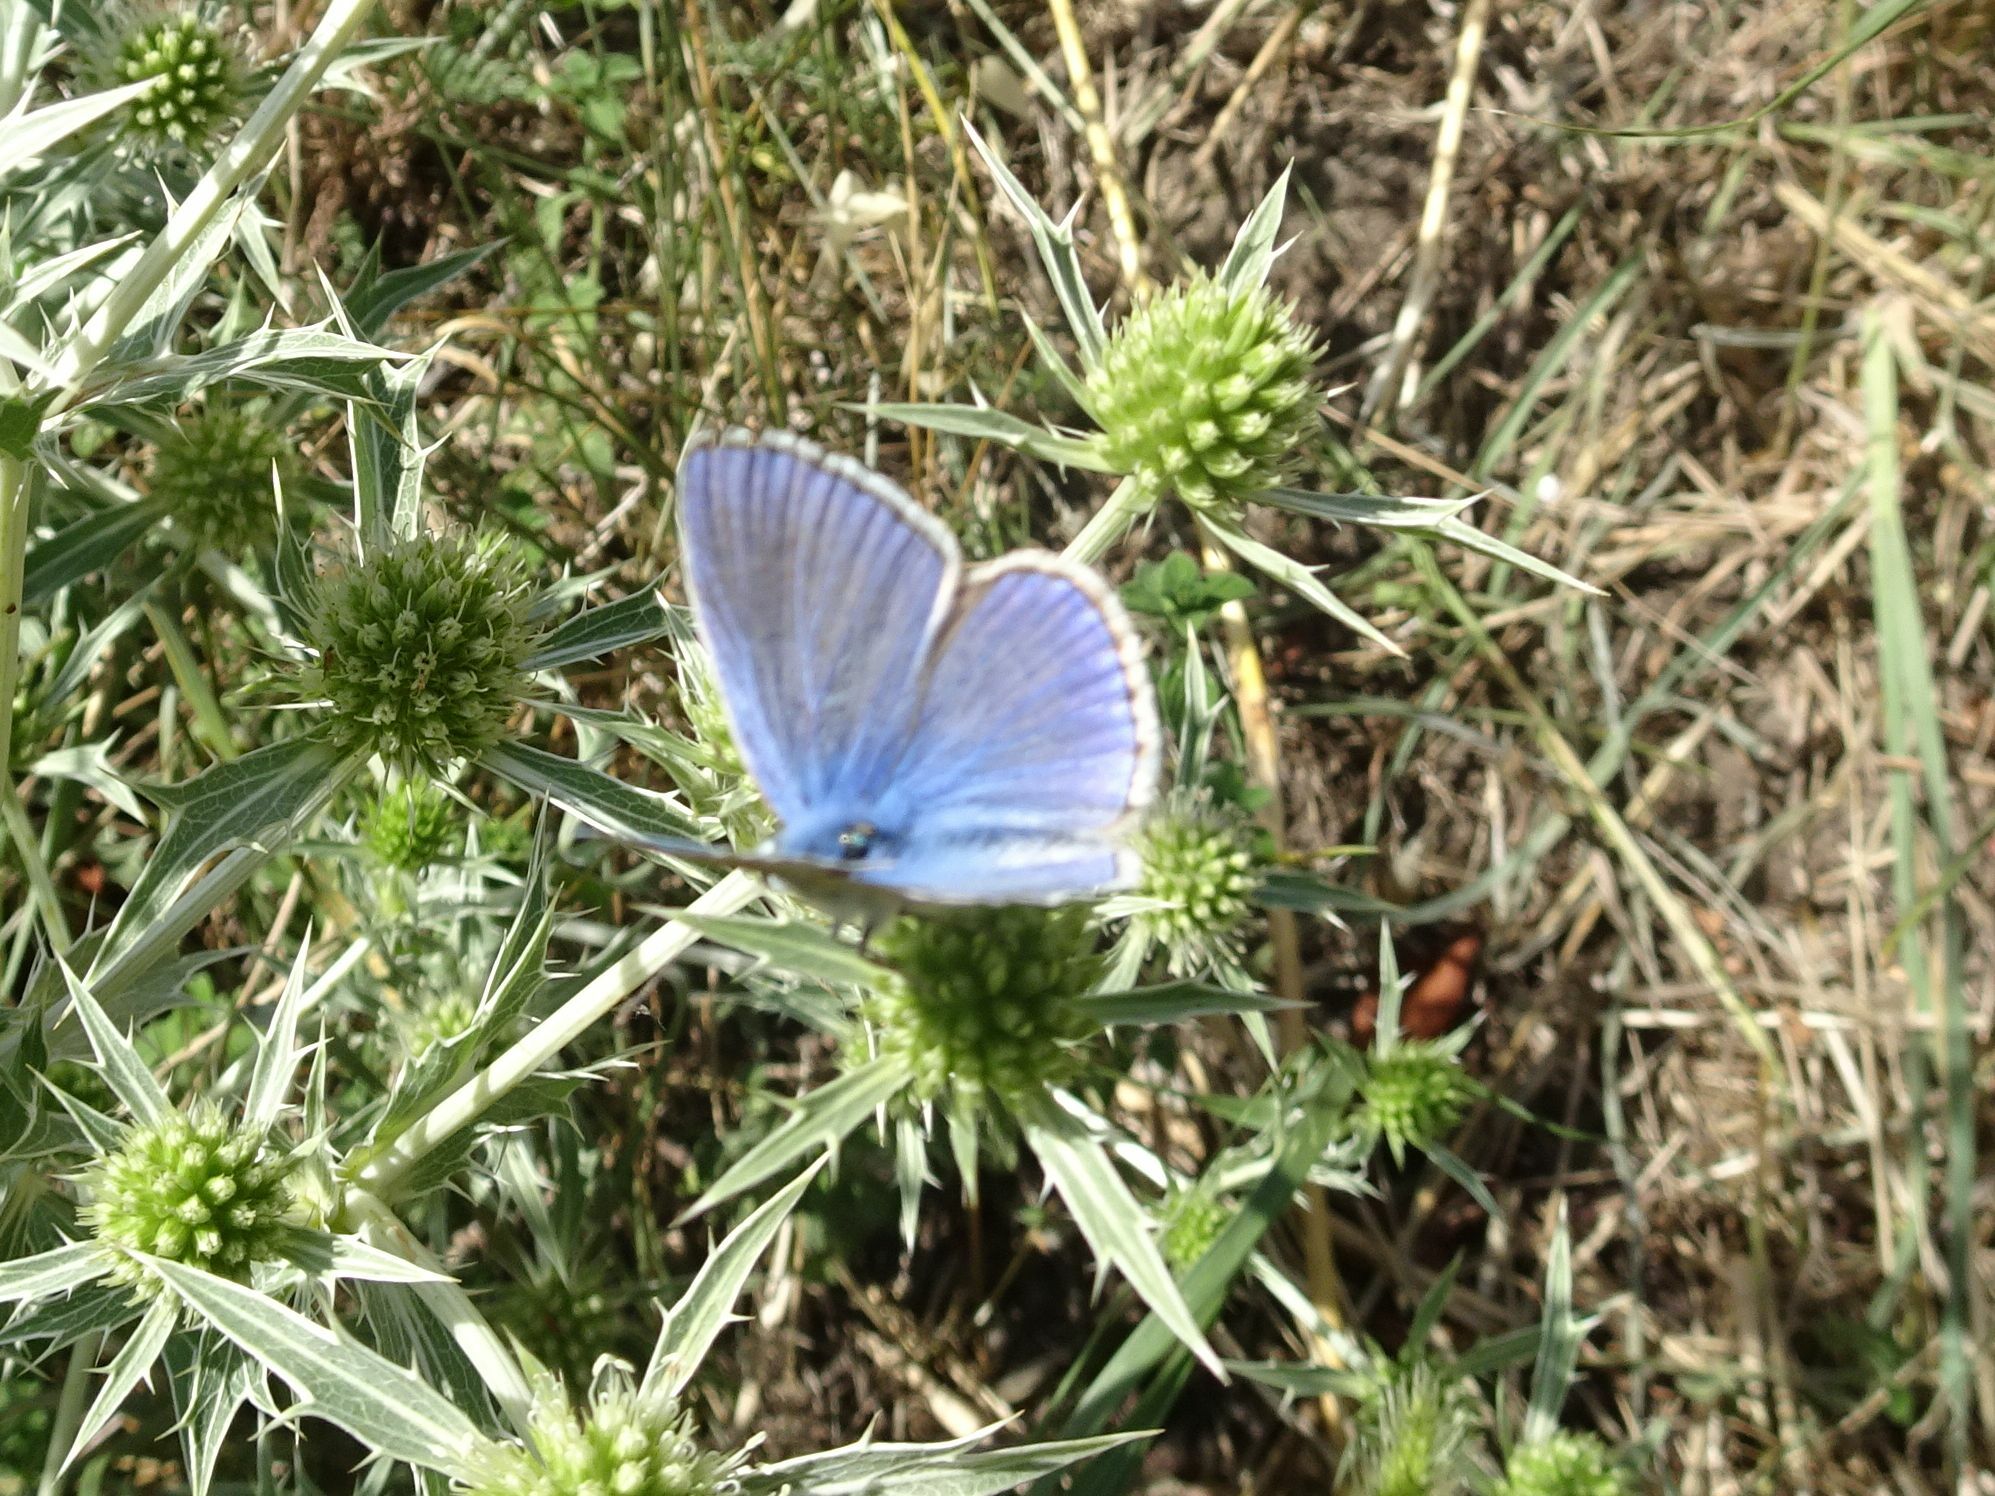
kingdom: Animalia
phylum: Arthropoda
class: Insecta
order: Lepidoptera
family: Lycaenidae
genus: Polyommatus
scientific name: Polyommatus icarus
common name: Common blue
